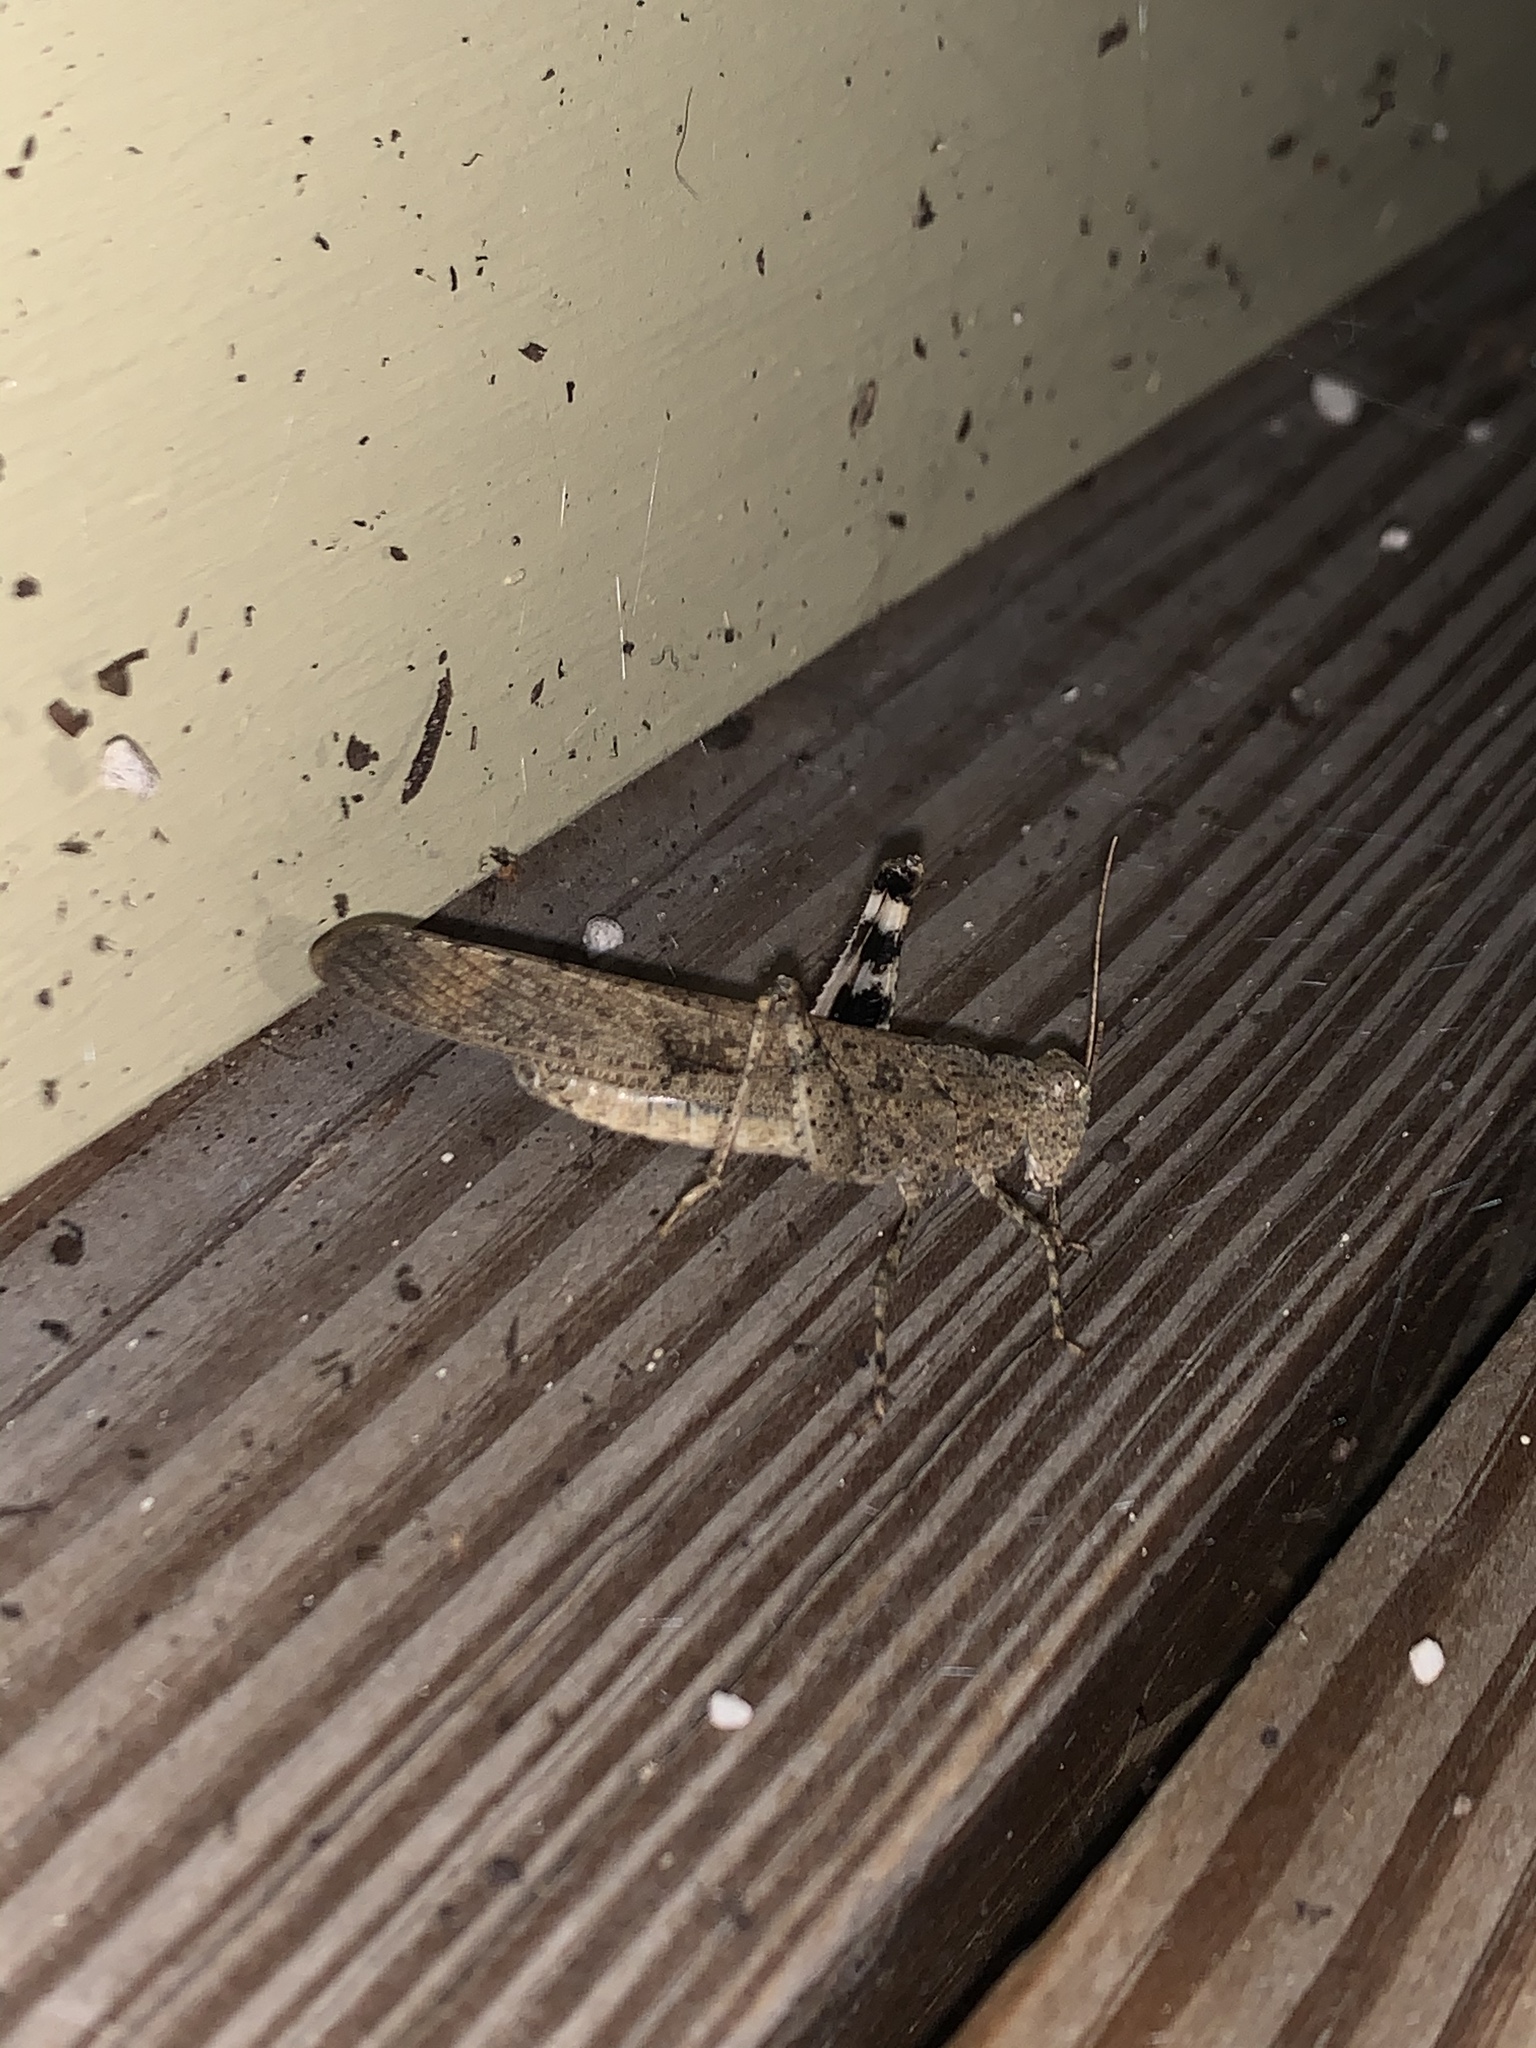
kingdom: Animalia
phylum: Arthropoda
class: Insecta
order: Orthoptera
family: Acrididae
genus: Dissosteira
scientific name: Dissosteira carolina
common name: Carolina grasshopper
